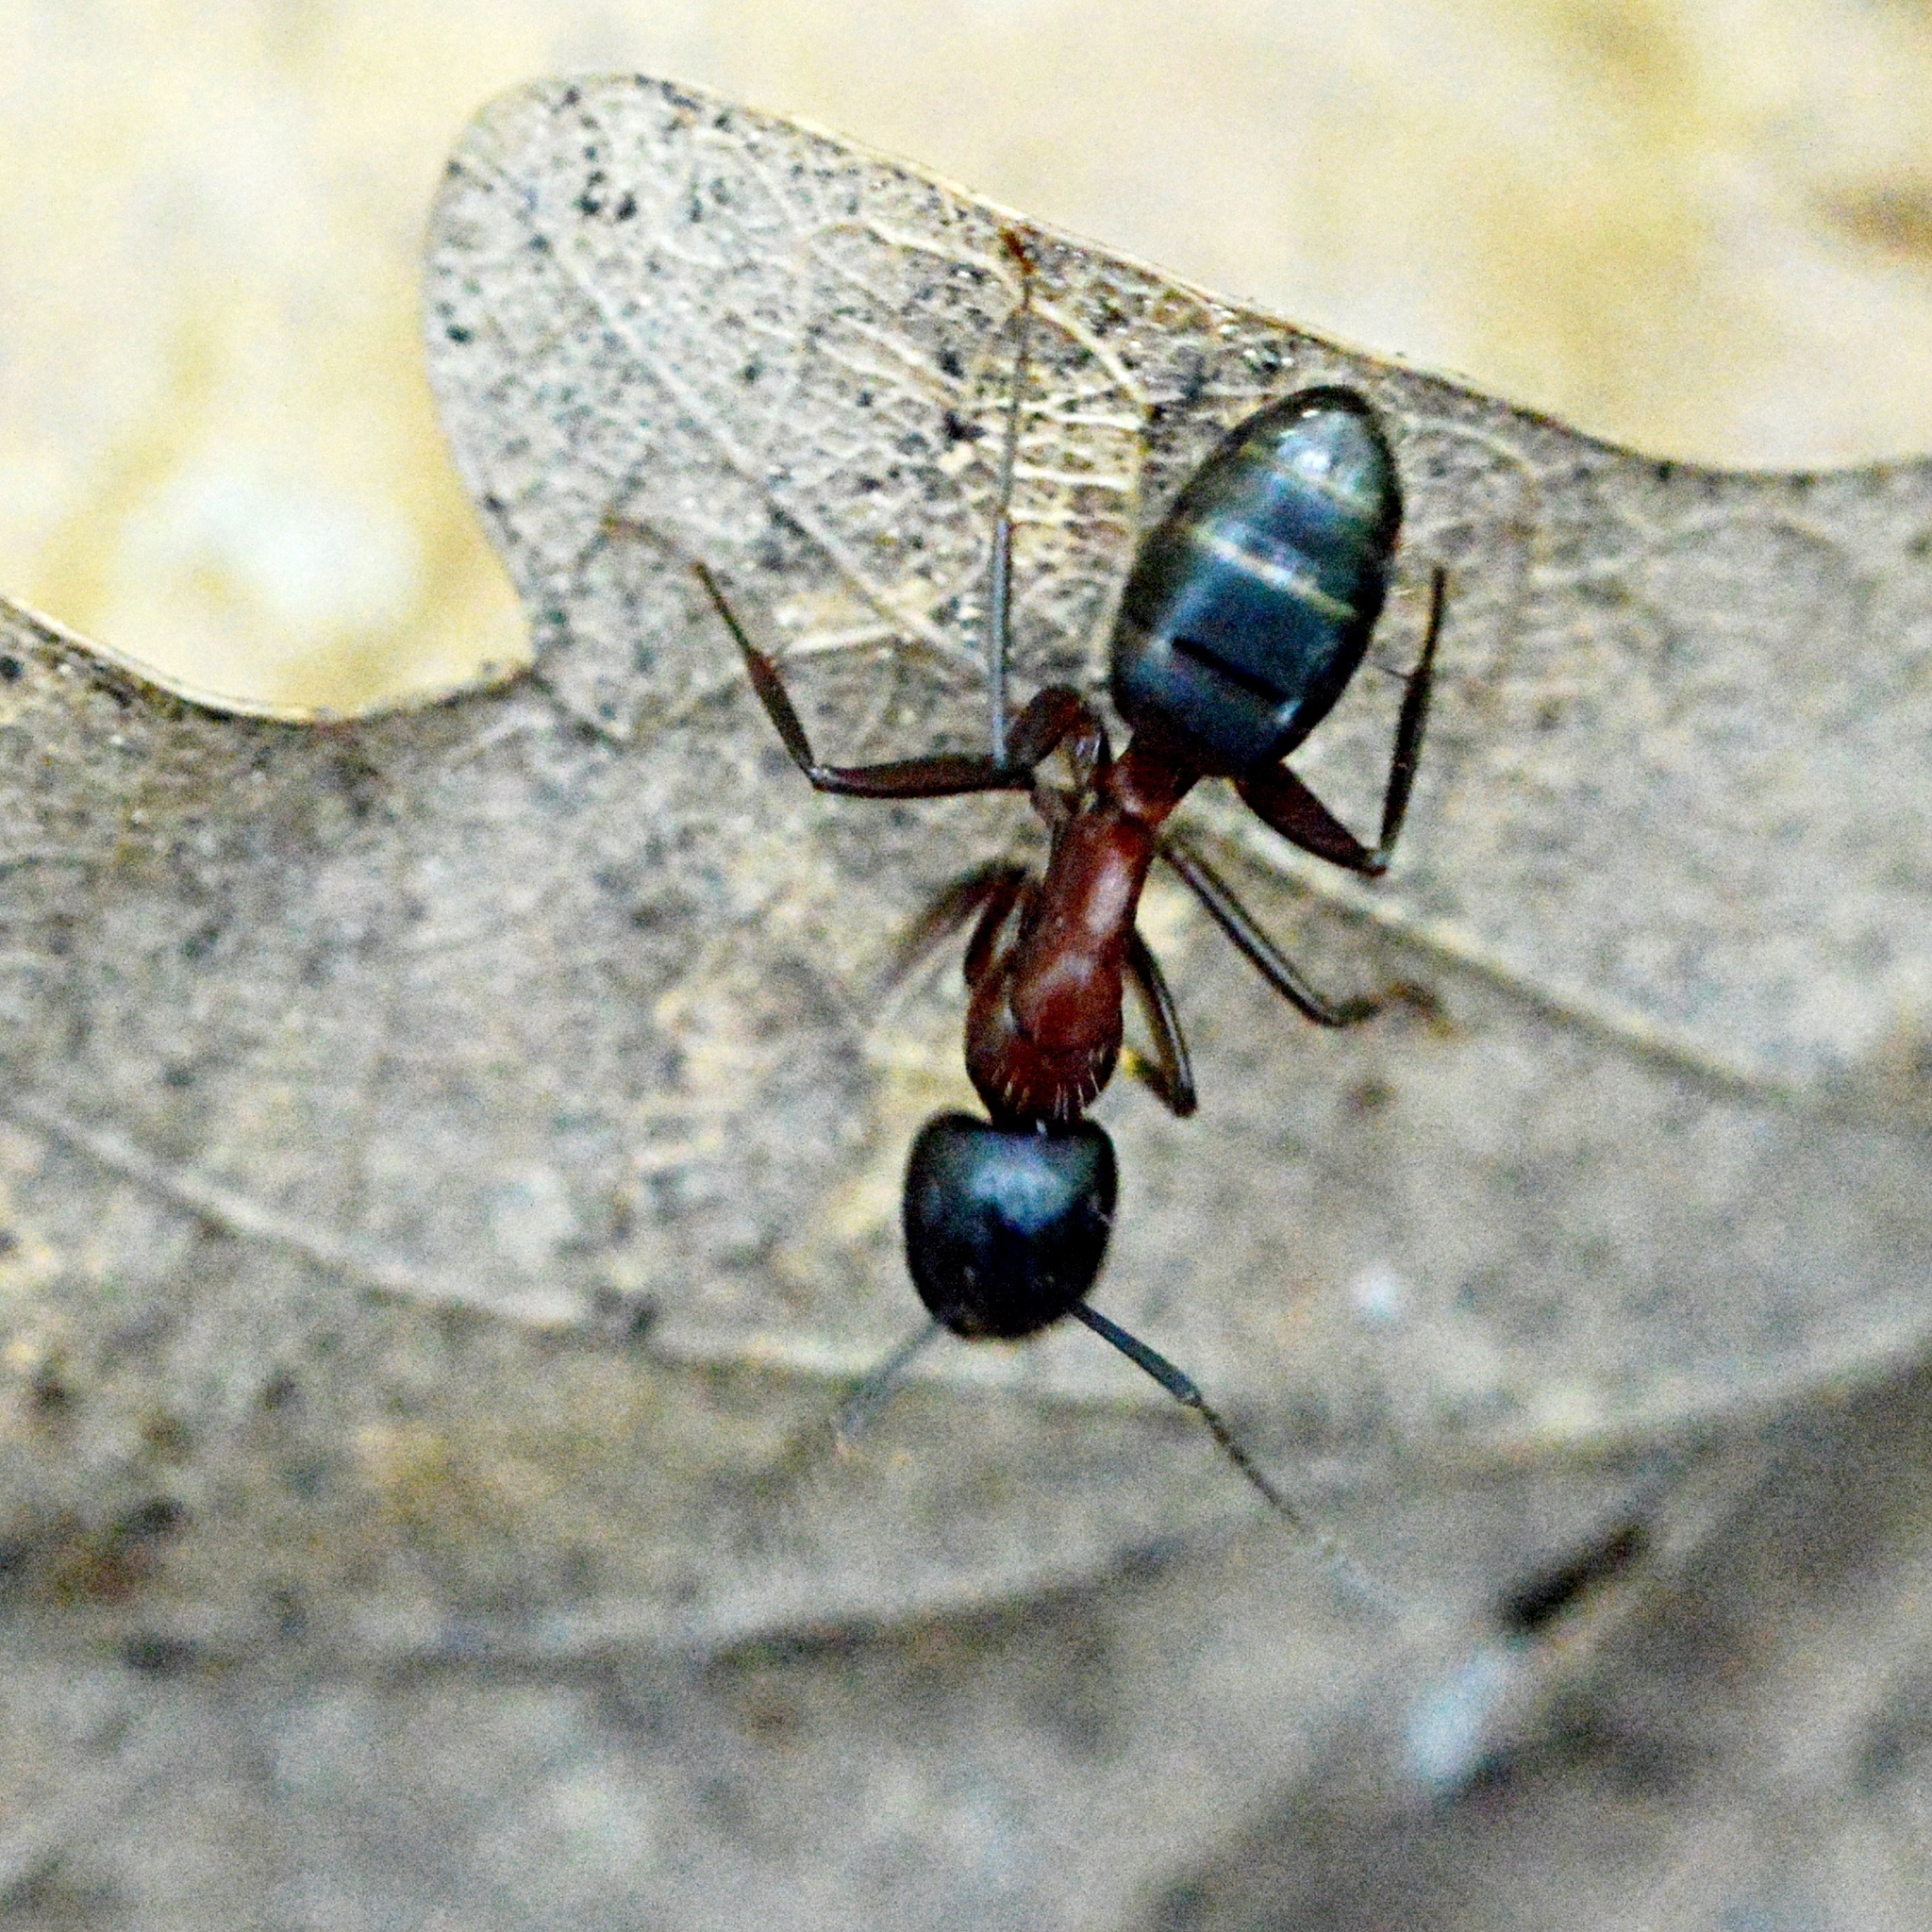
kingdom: Animalia
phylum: Arthropoda
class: Insecta
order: Hymenoptera
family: Formicidae
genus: Camponotus
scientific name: Camponotus ligniperdus
